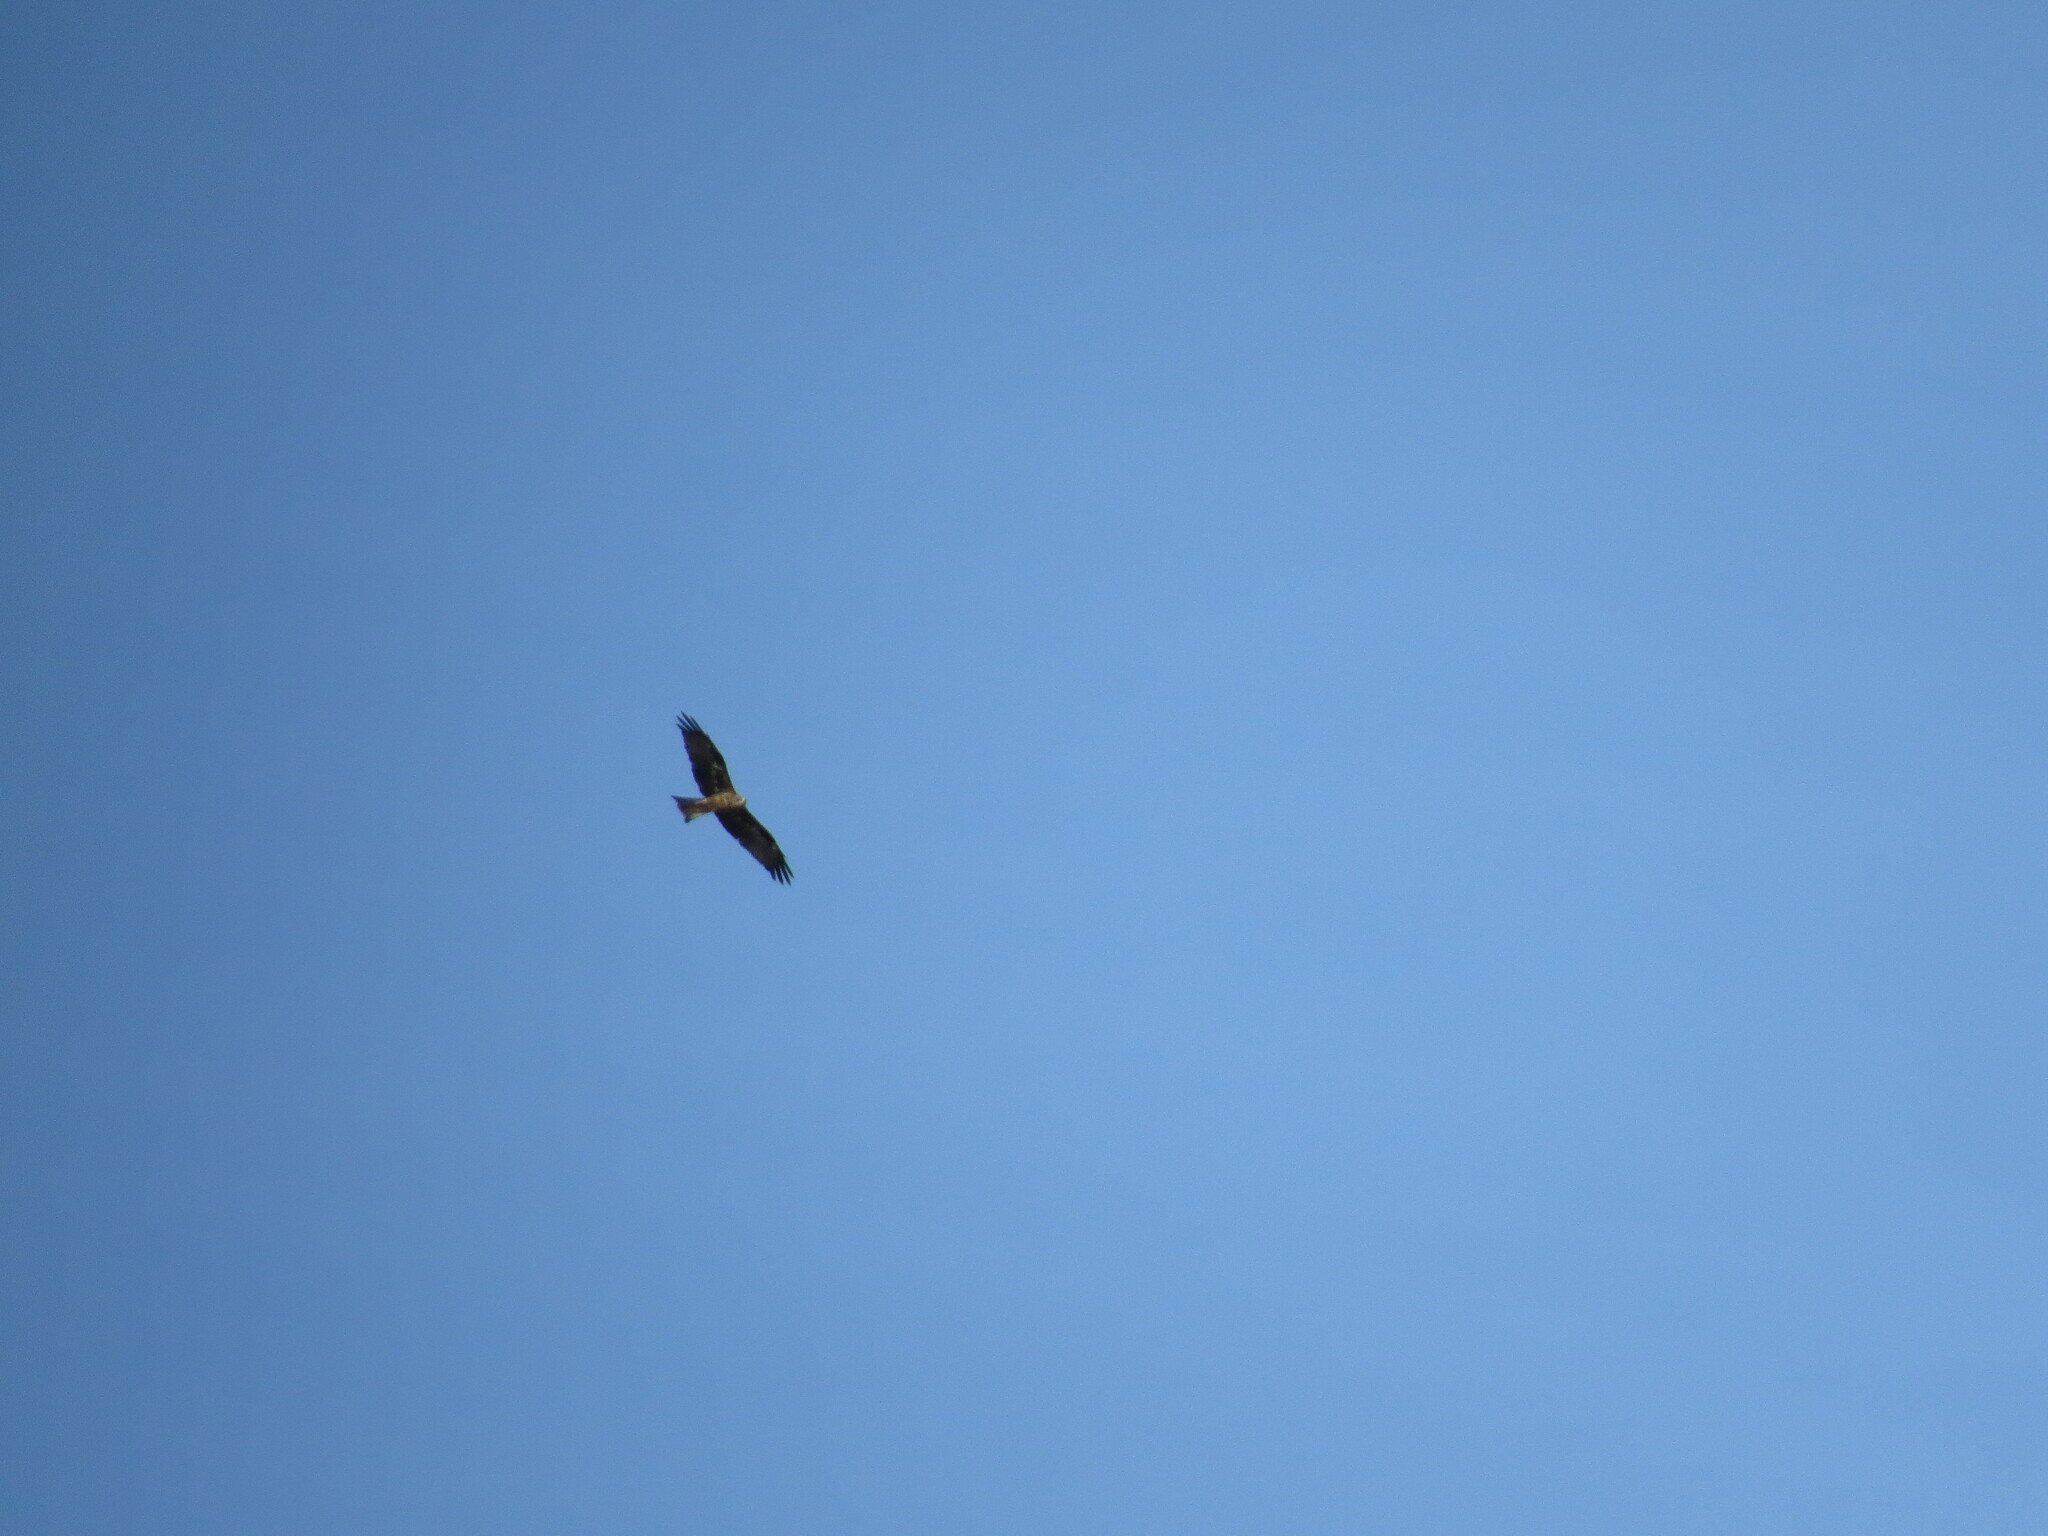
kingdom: Animalia
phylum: Chordata
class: Aves
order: Accipitriformes
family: Accipitridae
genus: Milvus
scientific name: Milvus migrans
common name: Black kite
